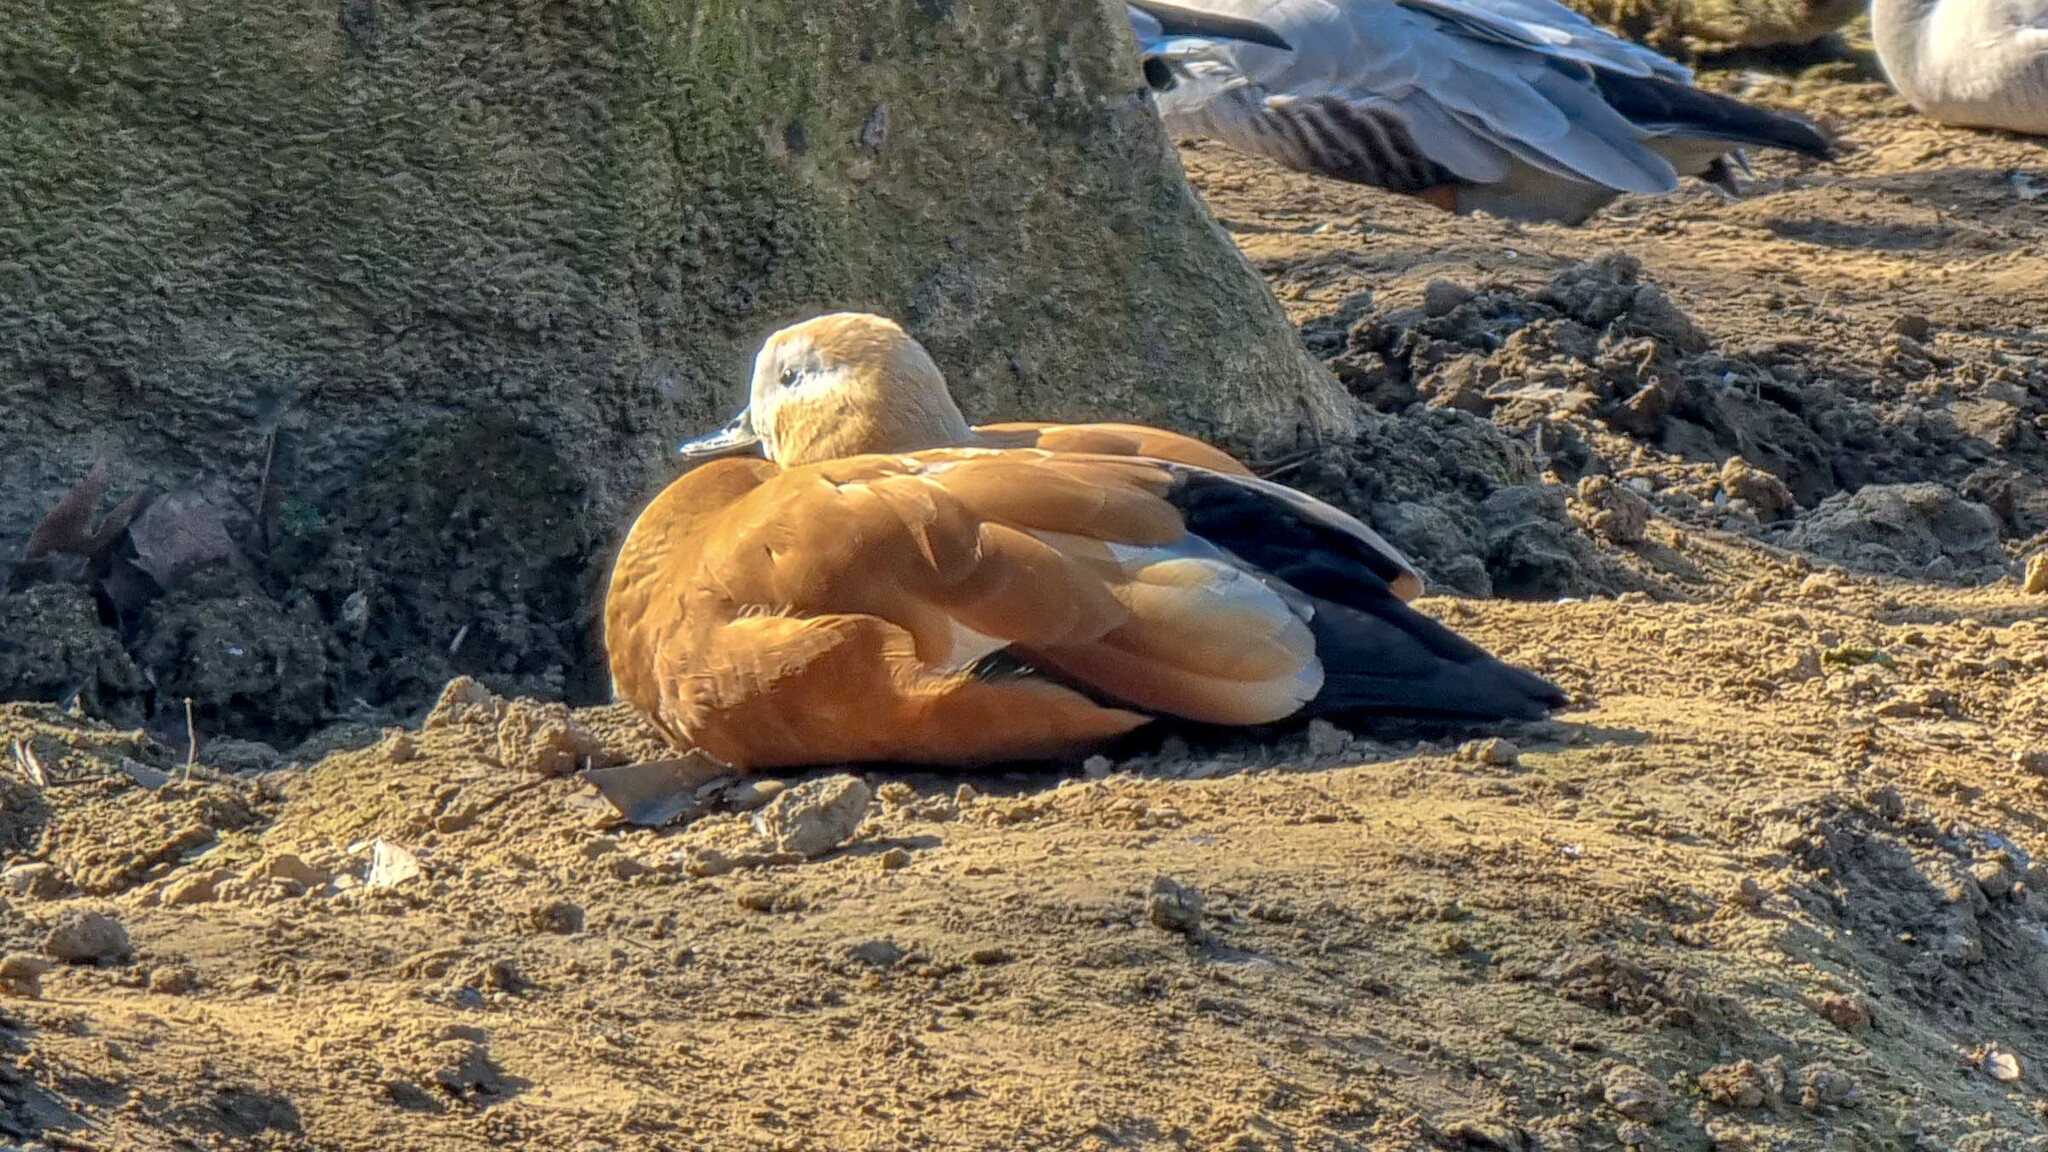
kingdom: Animalia
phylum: Chordata
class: Aves
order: Anseriformes
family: Anatidae
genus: Tadorna
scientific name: Tadorna ferruginea
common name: Ruddy shelduck
